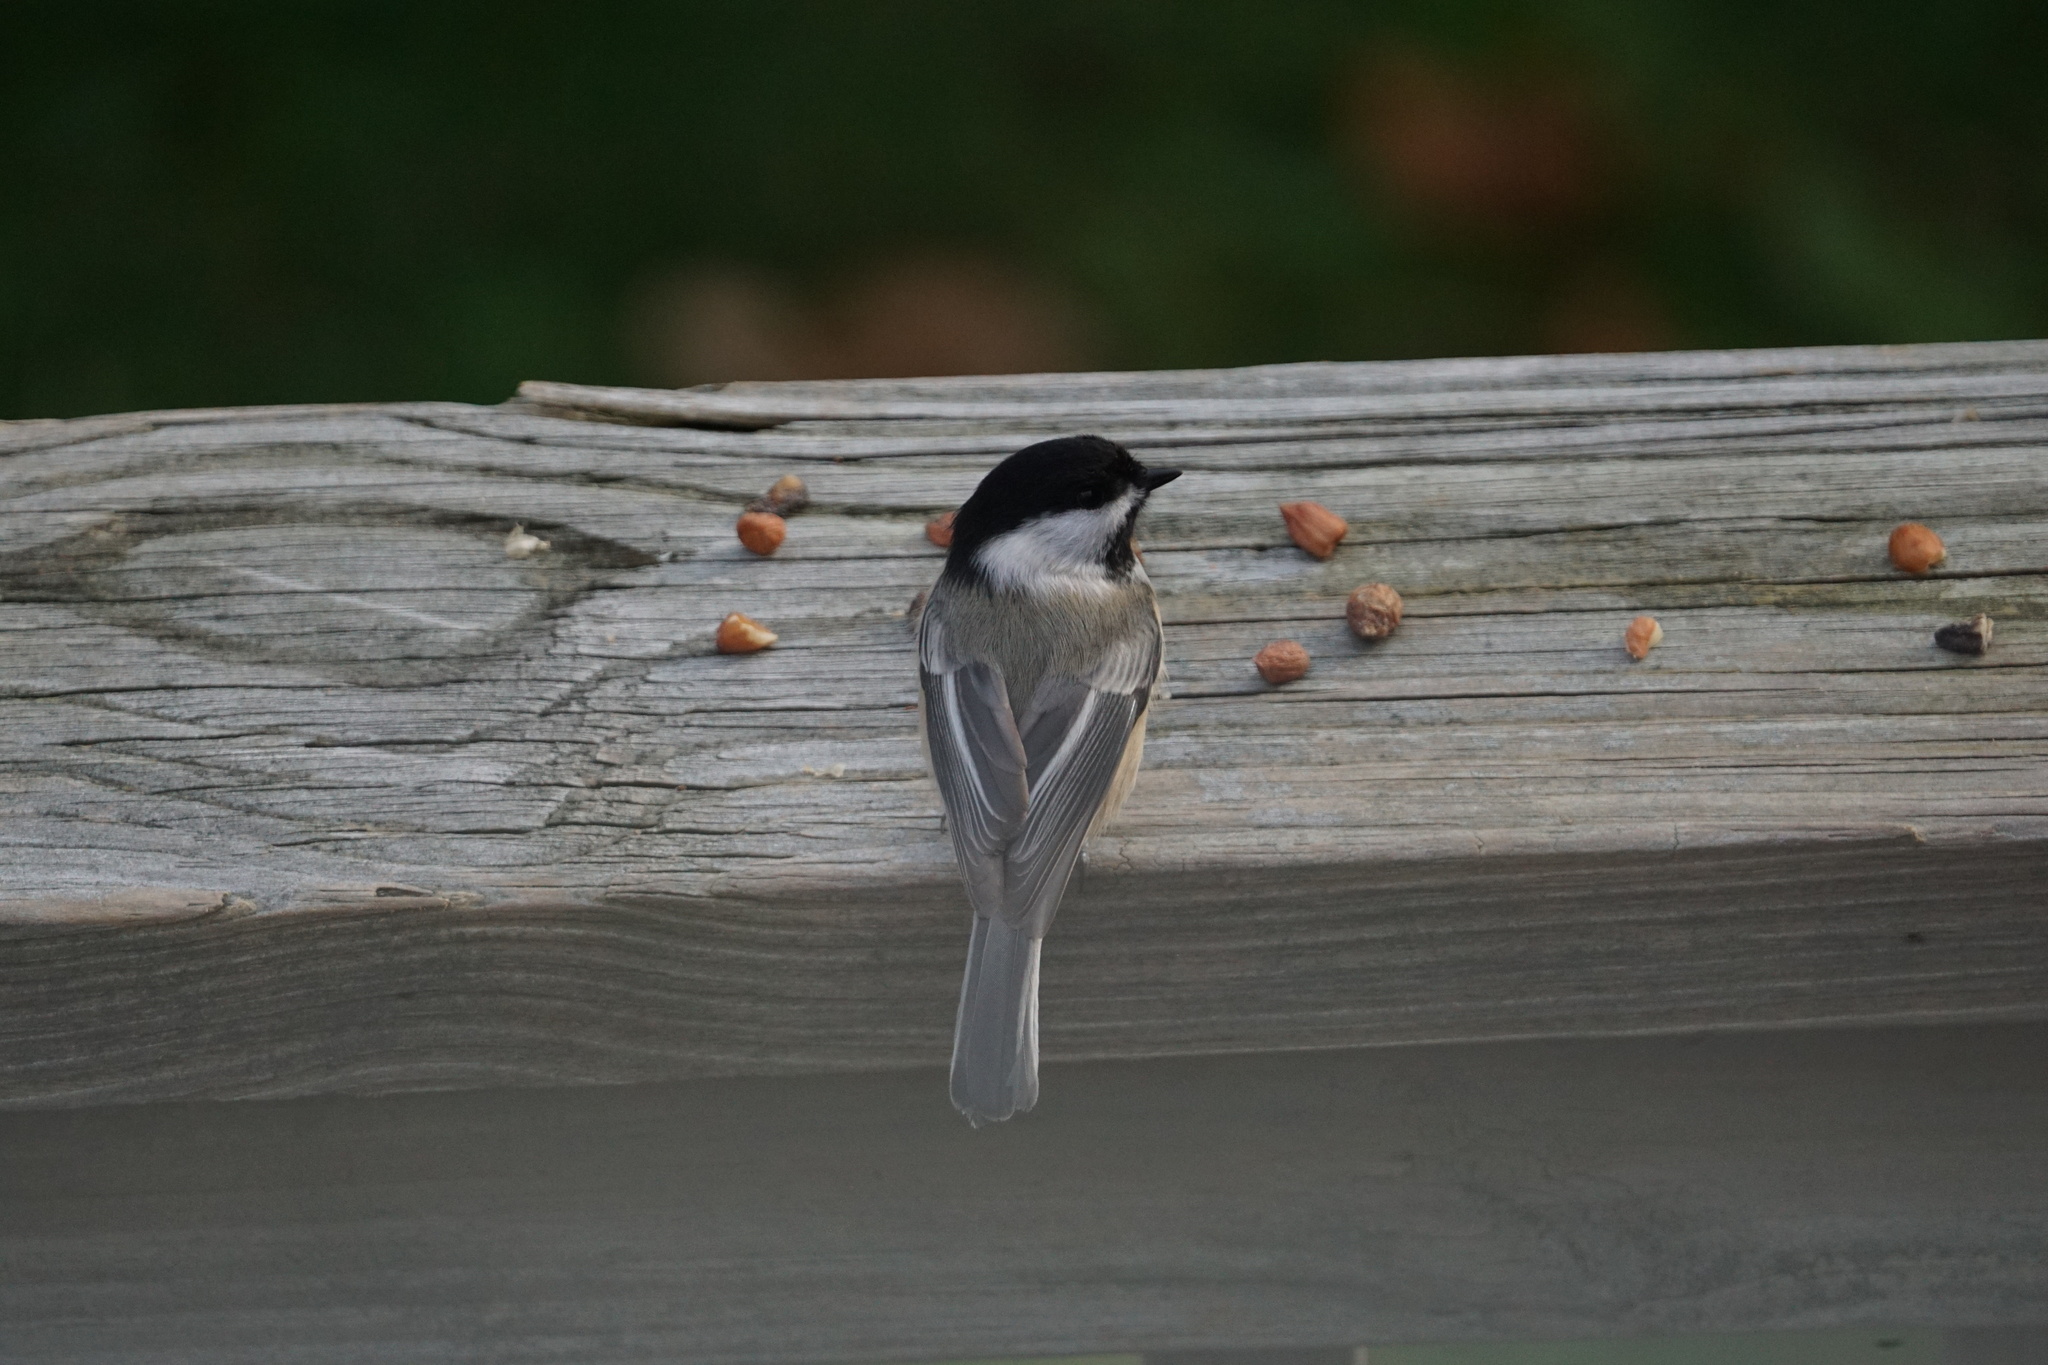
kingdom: Animalia
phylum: Chordata
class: Aves
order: Passeriformes
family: Paridae
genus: Poecile
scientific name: Poecile atricapillus
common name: Black-capped chickadee
